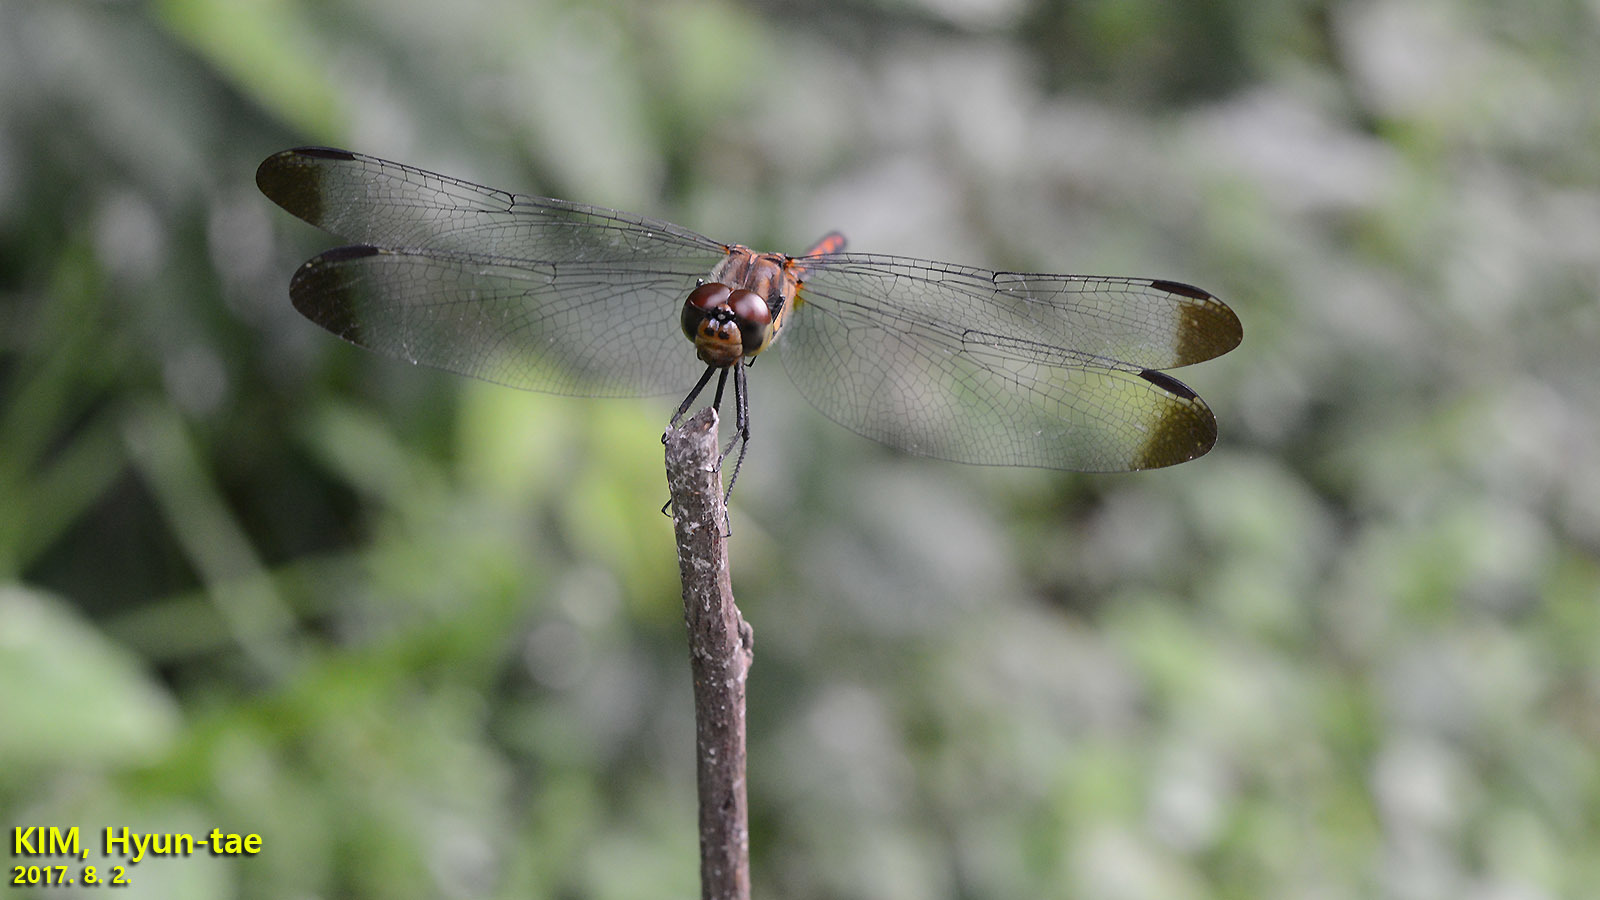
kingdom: Animalia
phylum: Arthropoda
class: Insecta
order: Odonata
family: Libellulidae
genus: Sympetrum
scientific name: Sympetrum infuscatum
